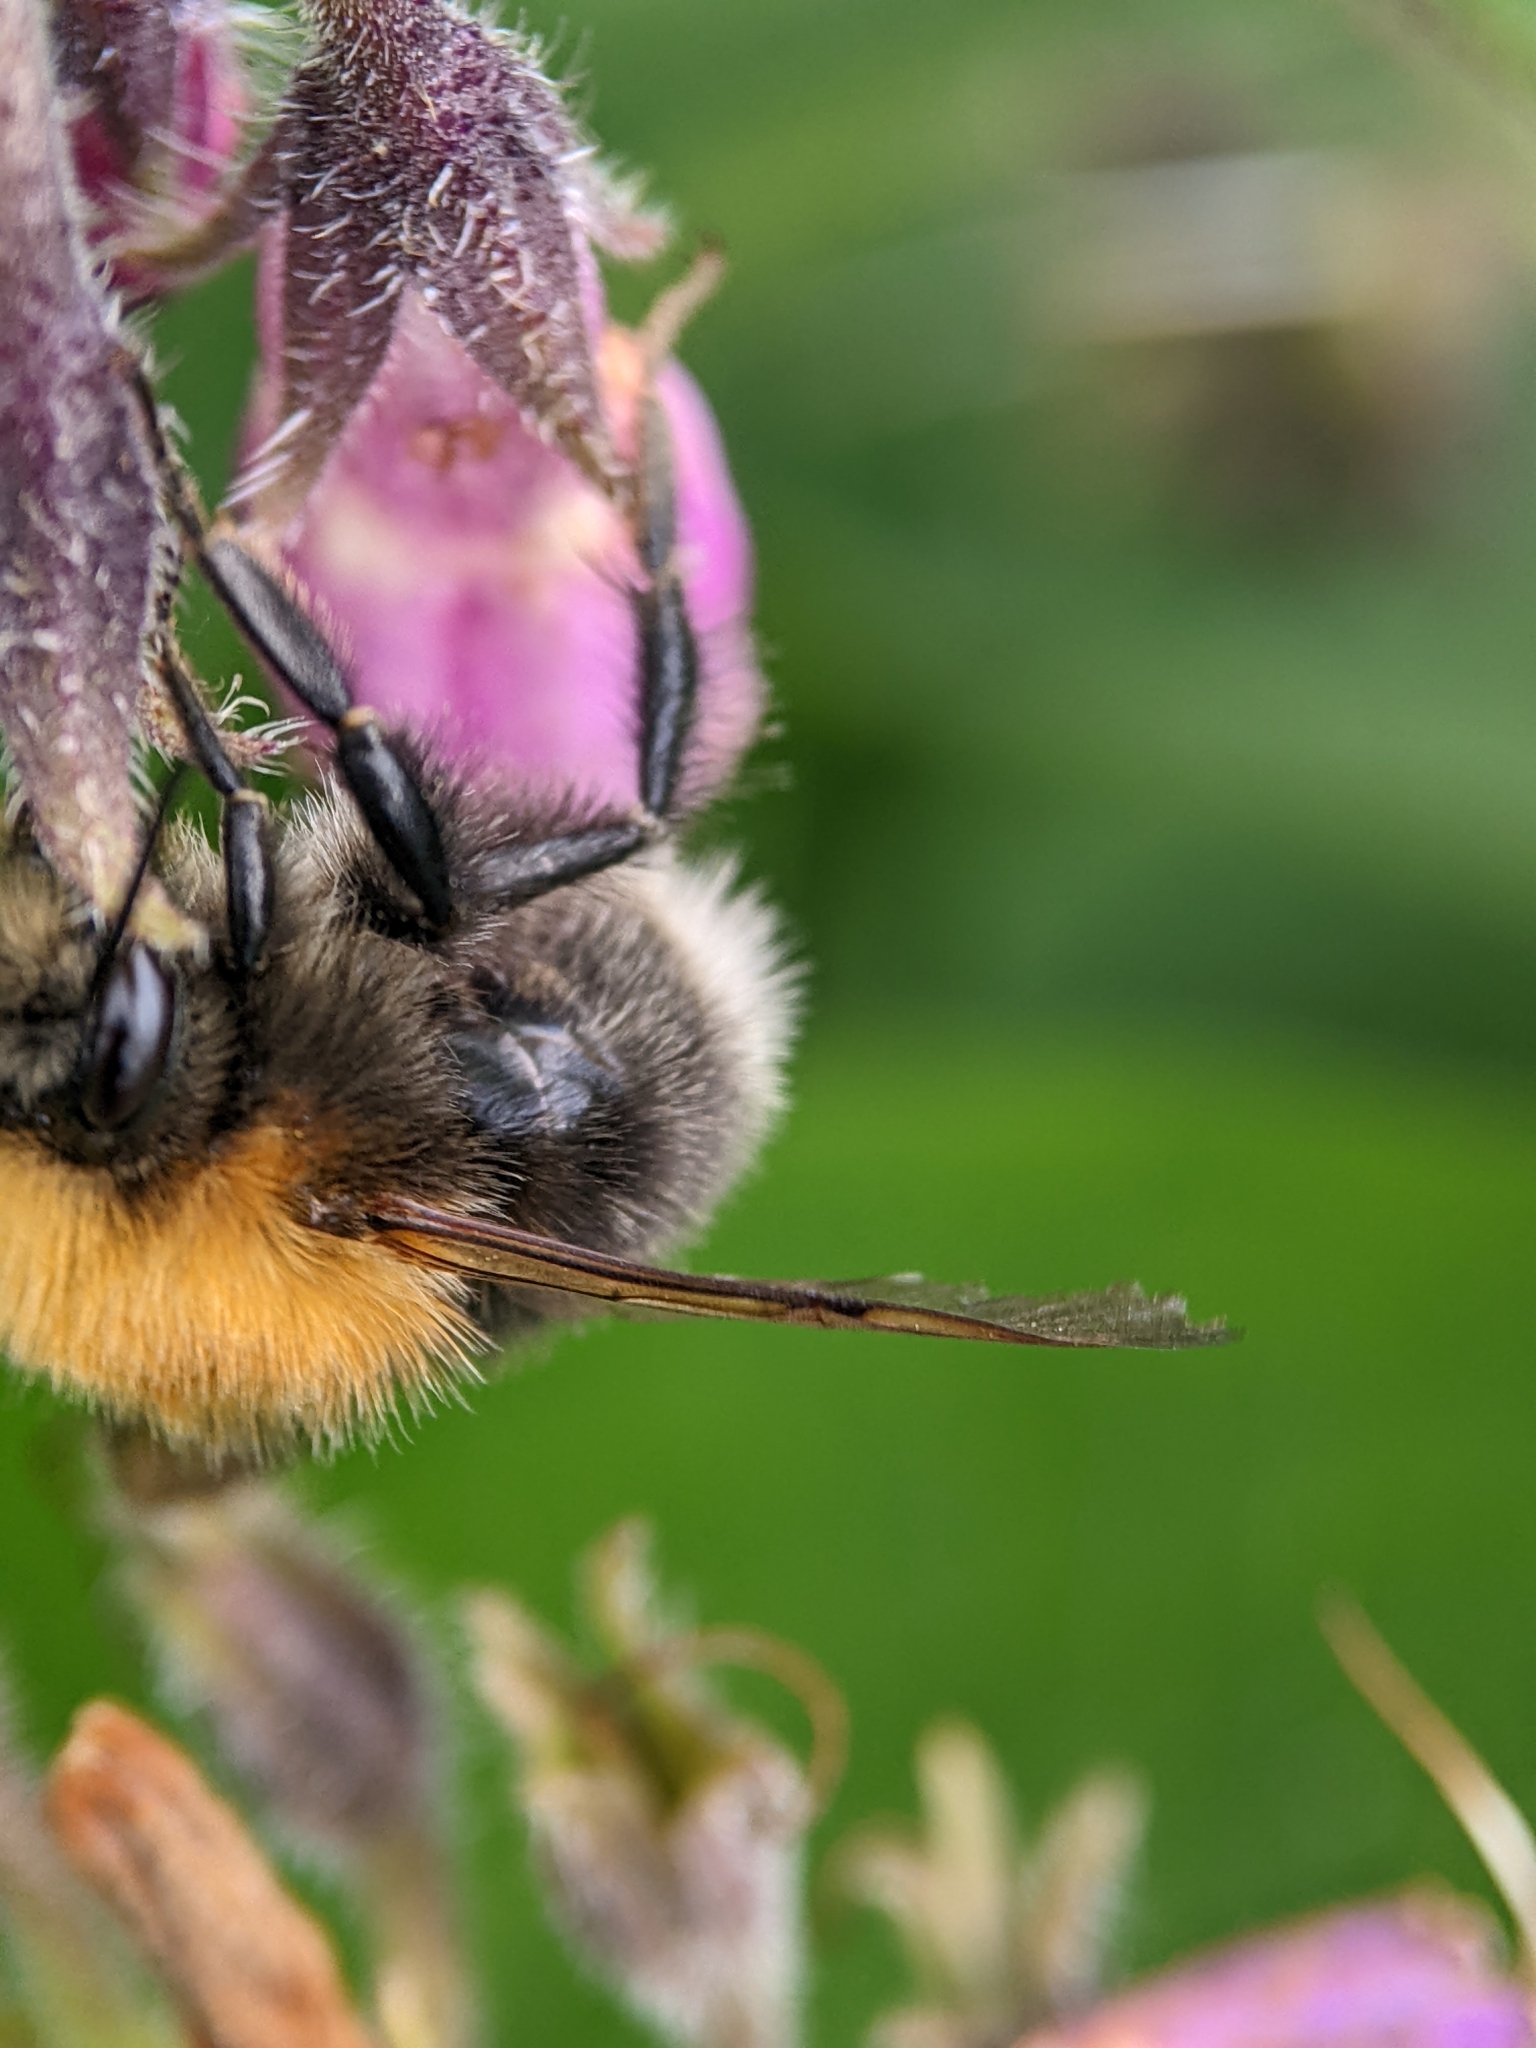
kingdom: Animalia
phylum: Arthropoda
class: Insecta
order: Hymenoptera
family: Apidae
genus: Bombus
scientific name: Bombus hypnorum
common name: New garden bumblebee
